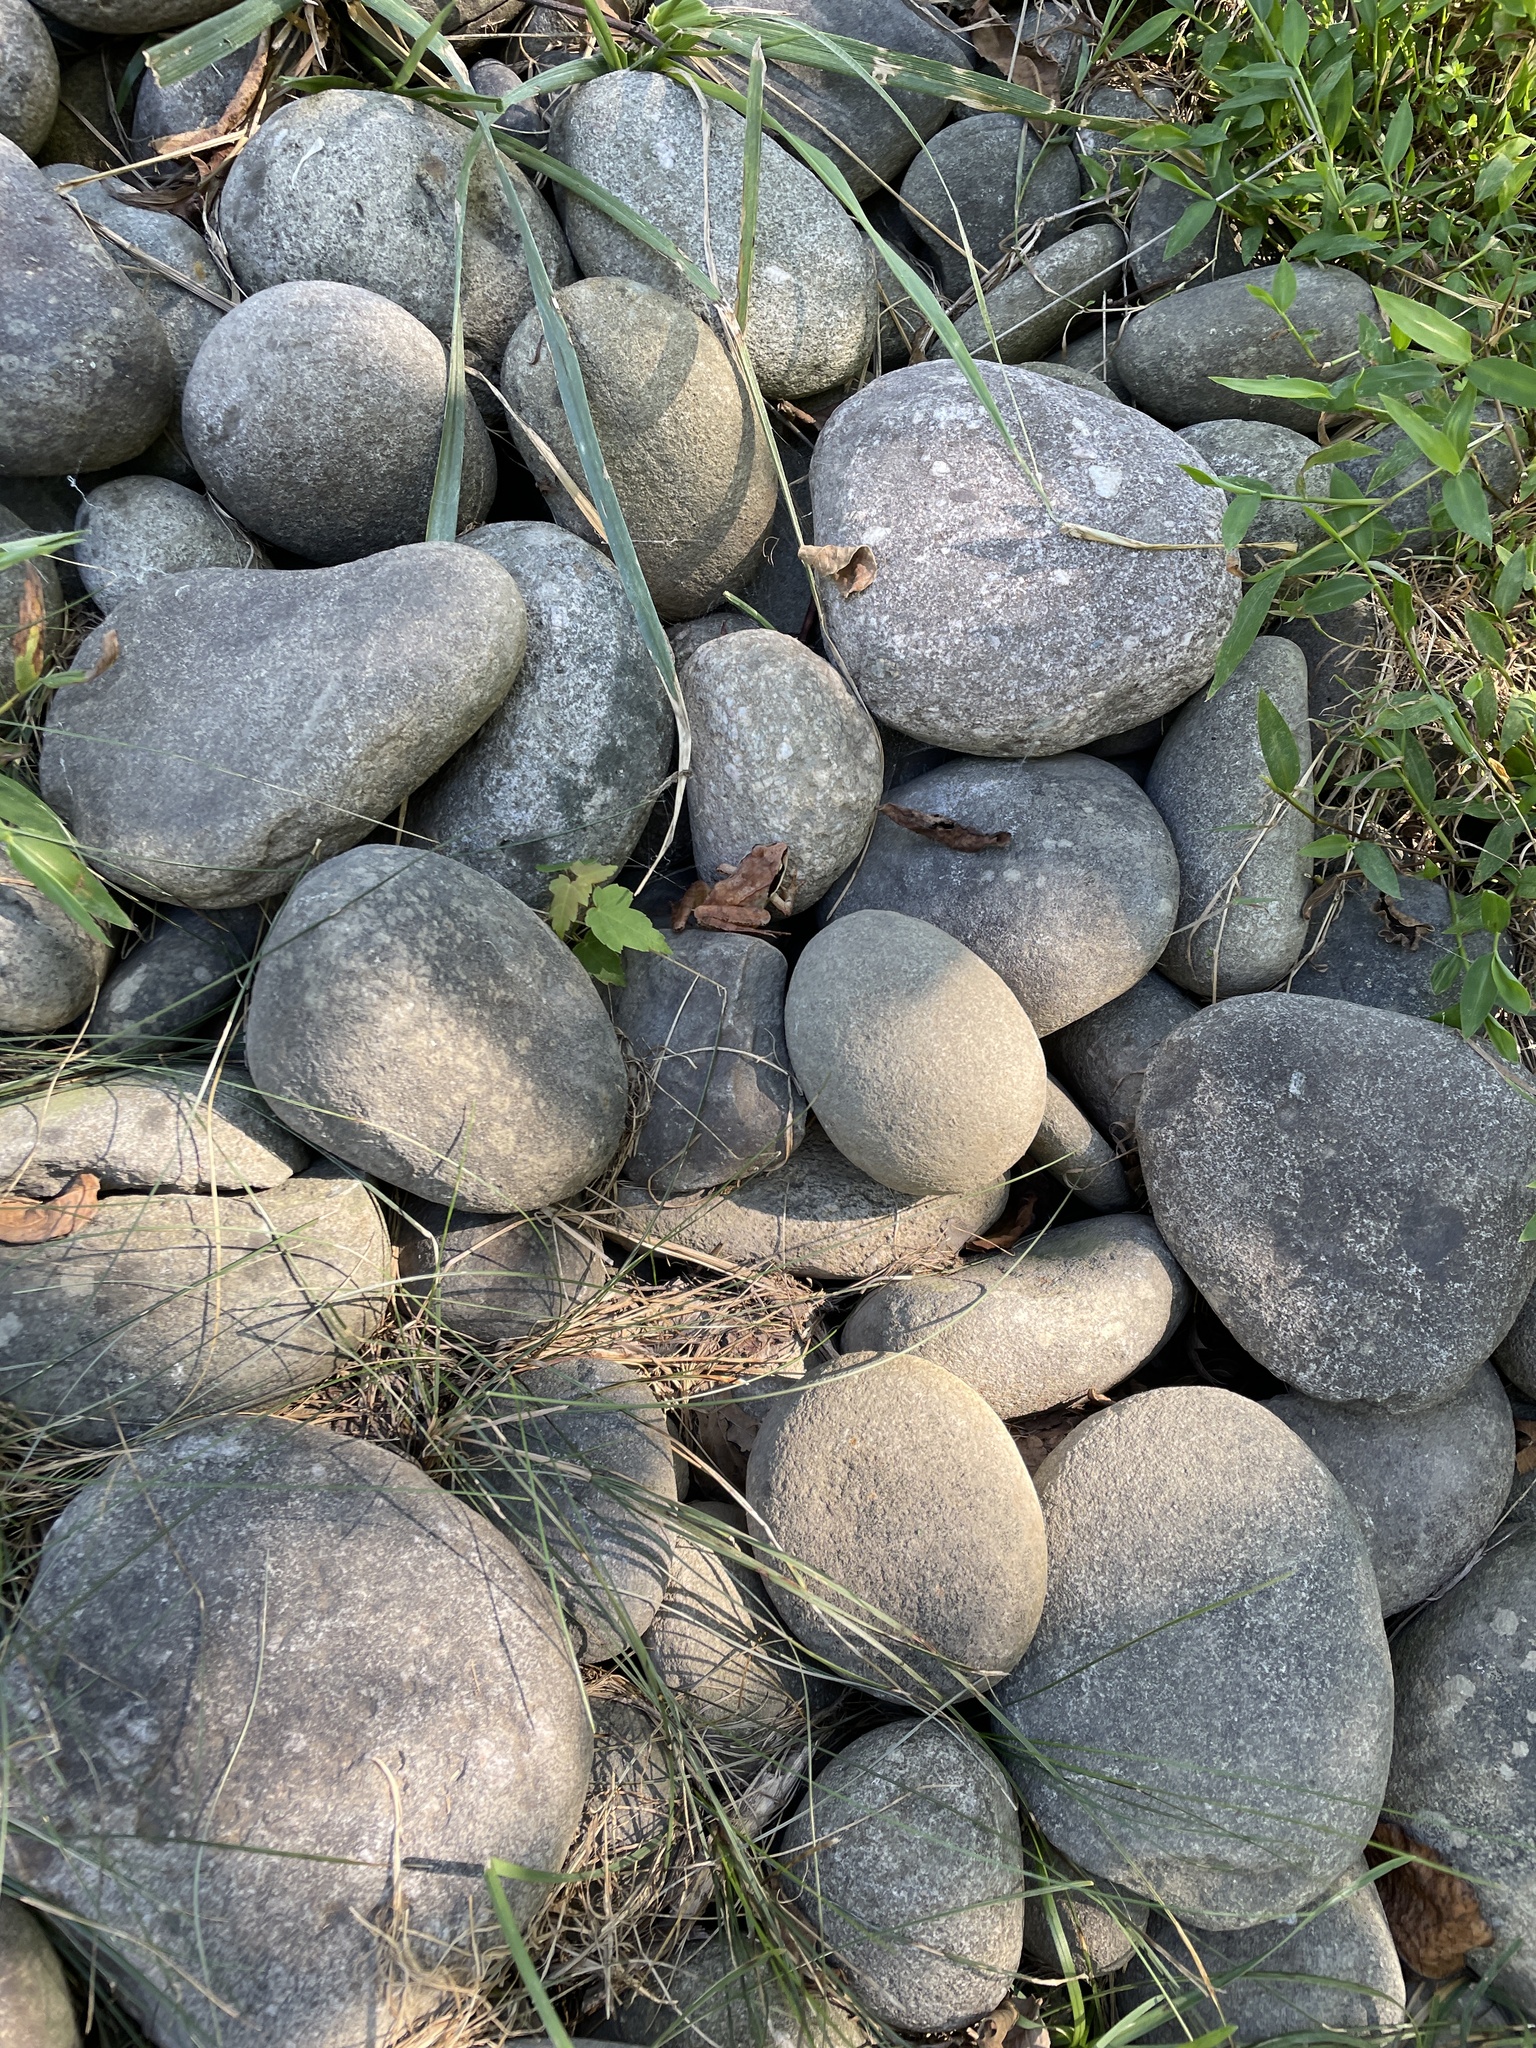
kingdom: Animalia
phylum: Chordata
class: Amphibia
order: Anura
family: Ranidae
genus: Lithobates
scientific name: Lithobates sylvaticus
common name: Wood frog
